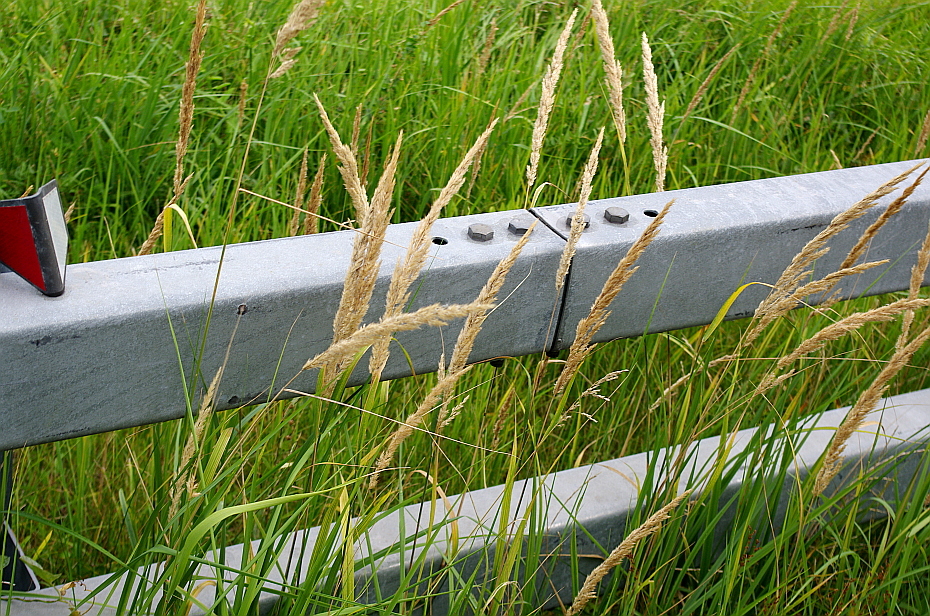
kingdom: Plantae
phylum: Tracheophyta
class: Liliopsida
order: Poales
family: Poaceae
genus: Calamagrostis
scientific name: Calamagrostis epigejos
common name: Wood small-reed
